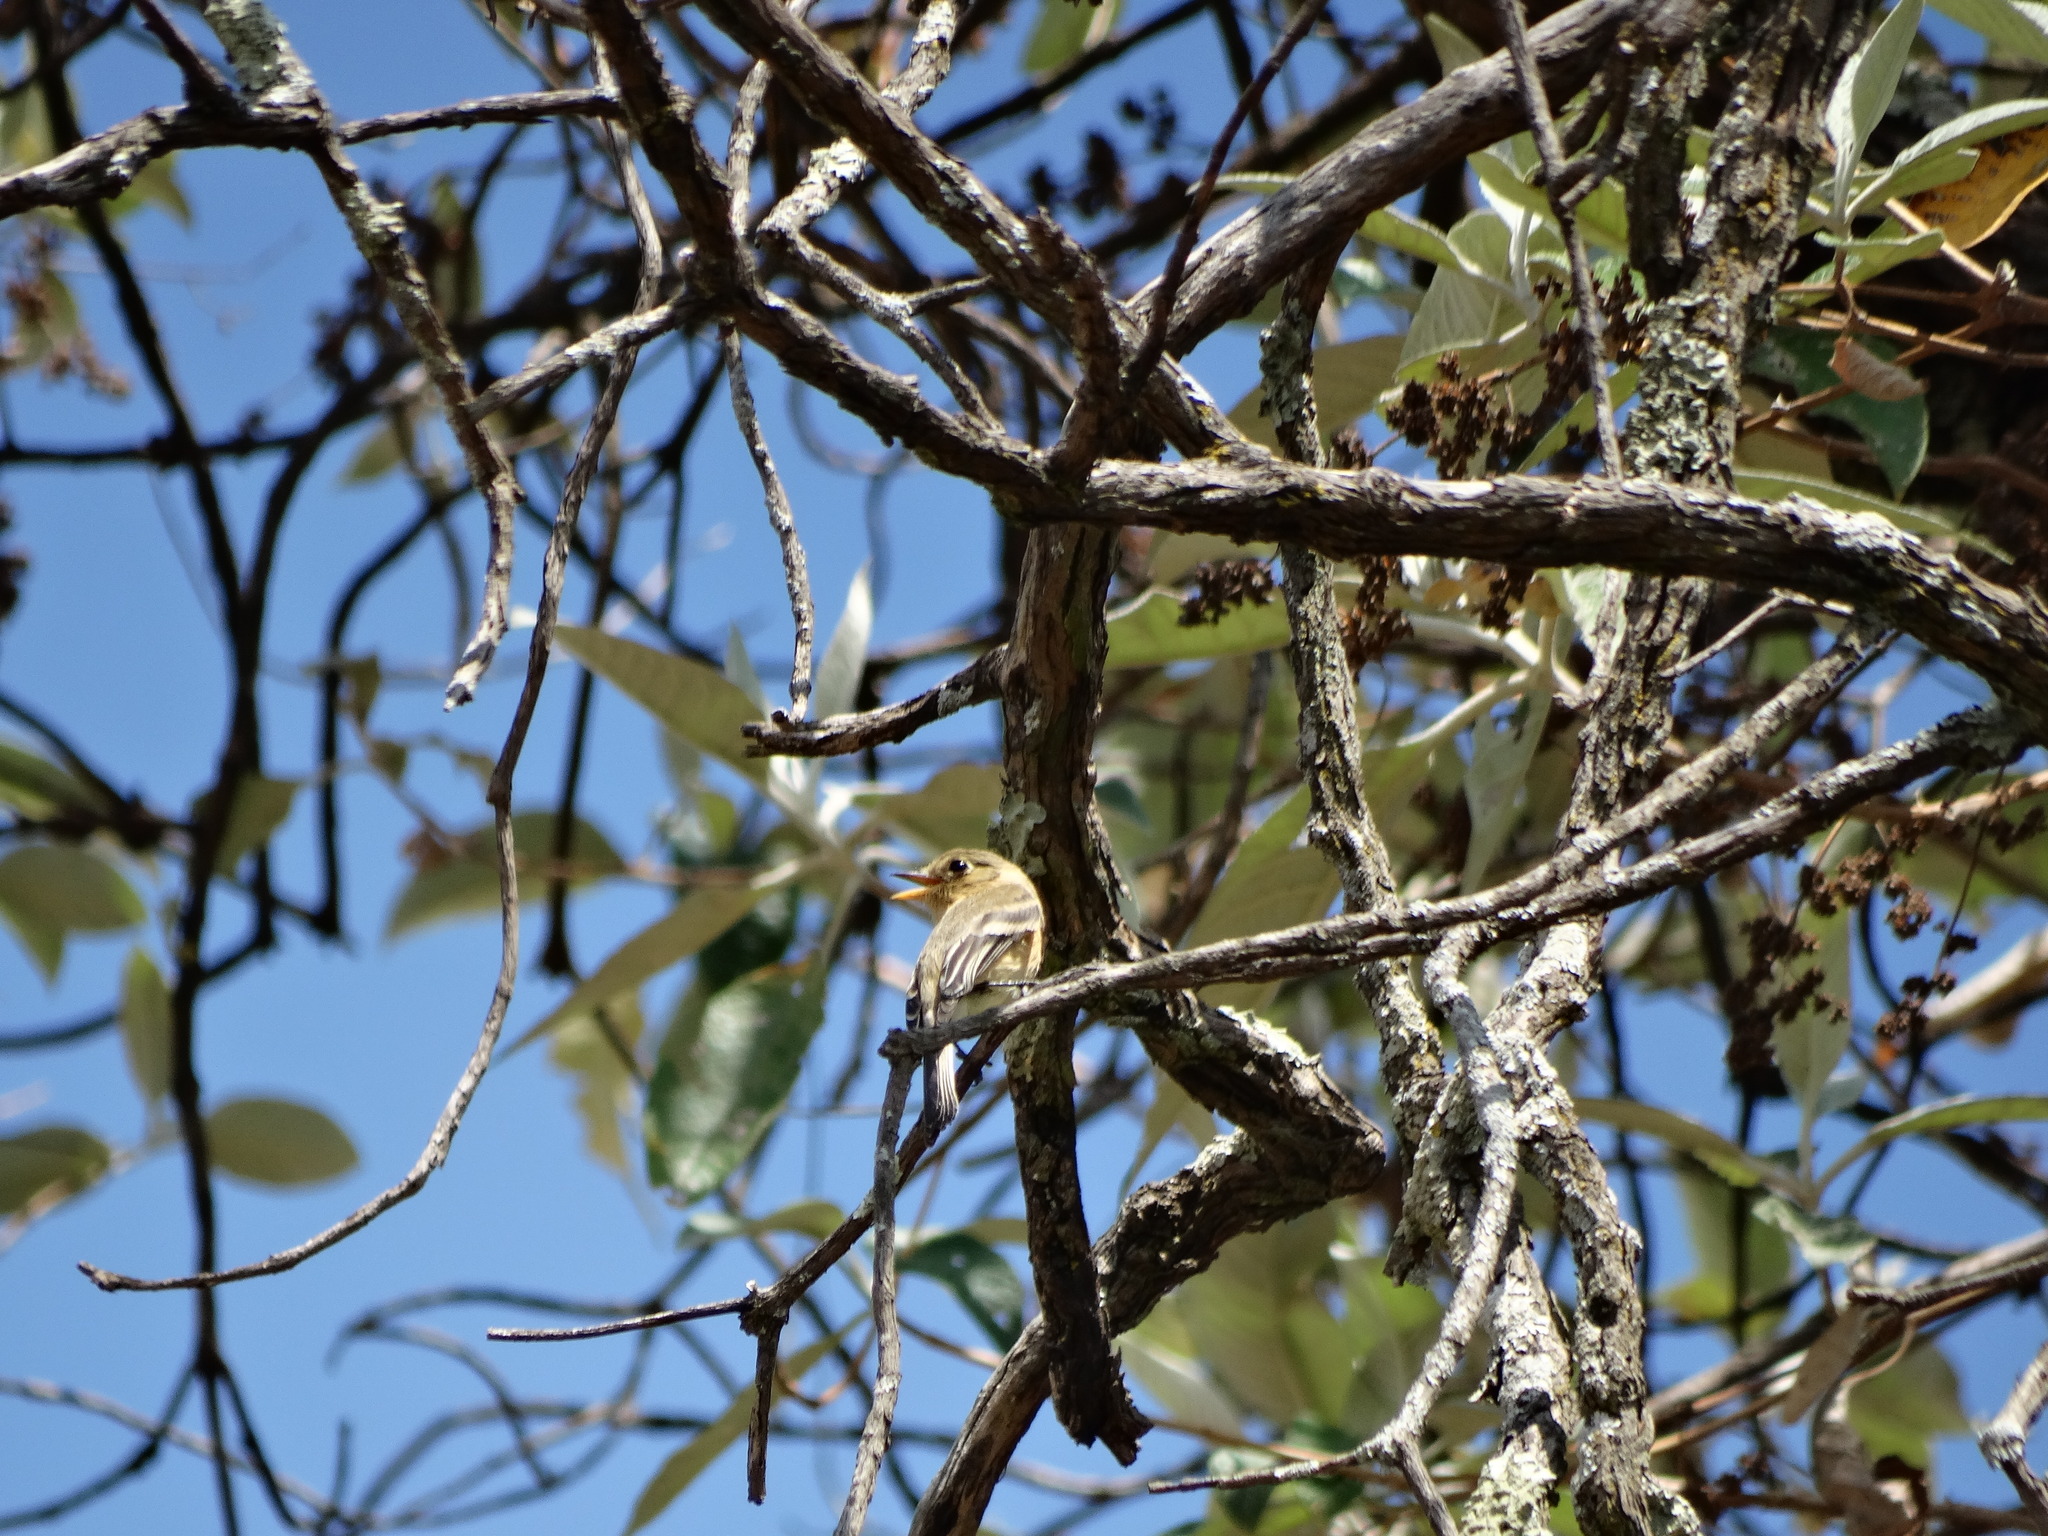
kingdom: Animalia
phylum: Chordata
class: Aves
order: Passeriformes
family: Tyrannidae
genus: Empidonax
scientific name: Empidonax fulvifrons
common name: Buff-breasted flycatcher
